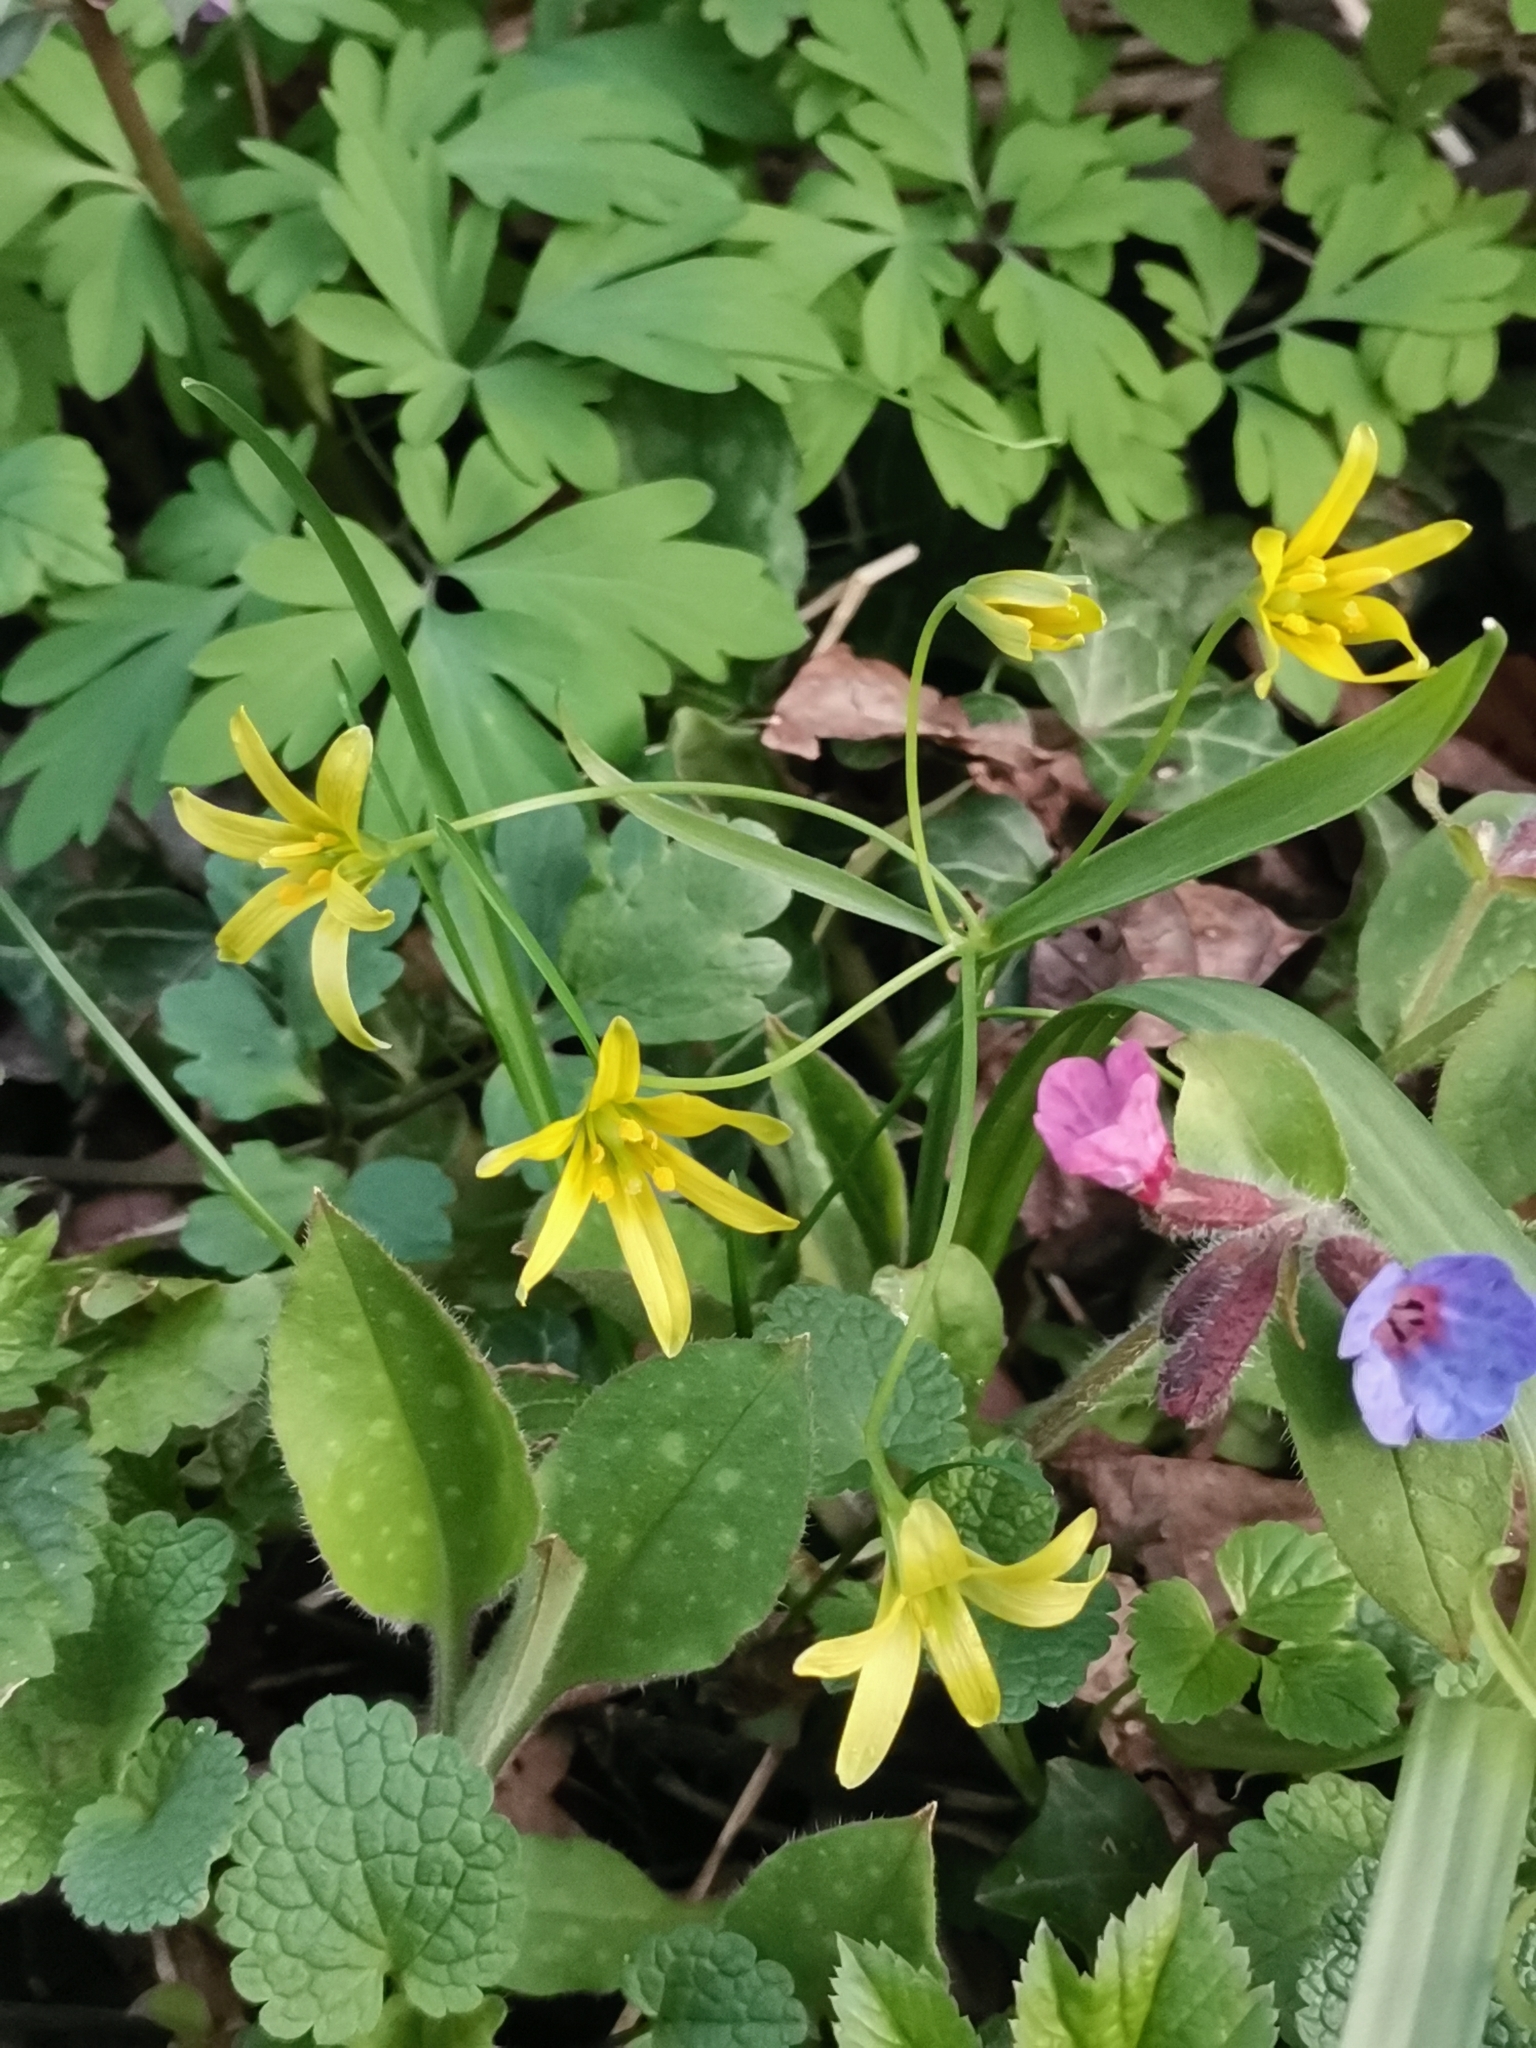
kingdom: Plantae
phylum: Tracheophyta
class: Liliopsida
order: Liliales
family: Liliaceae
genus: Gagea
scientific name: Gagea lutea
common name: Yellow star-of-bethlehem
